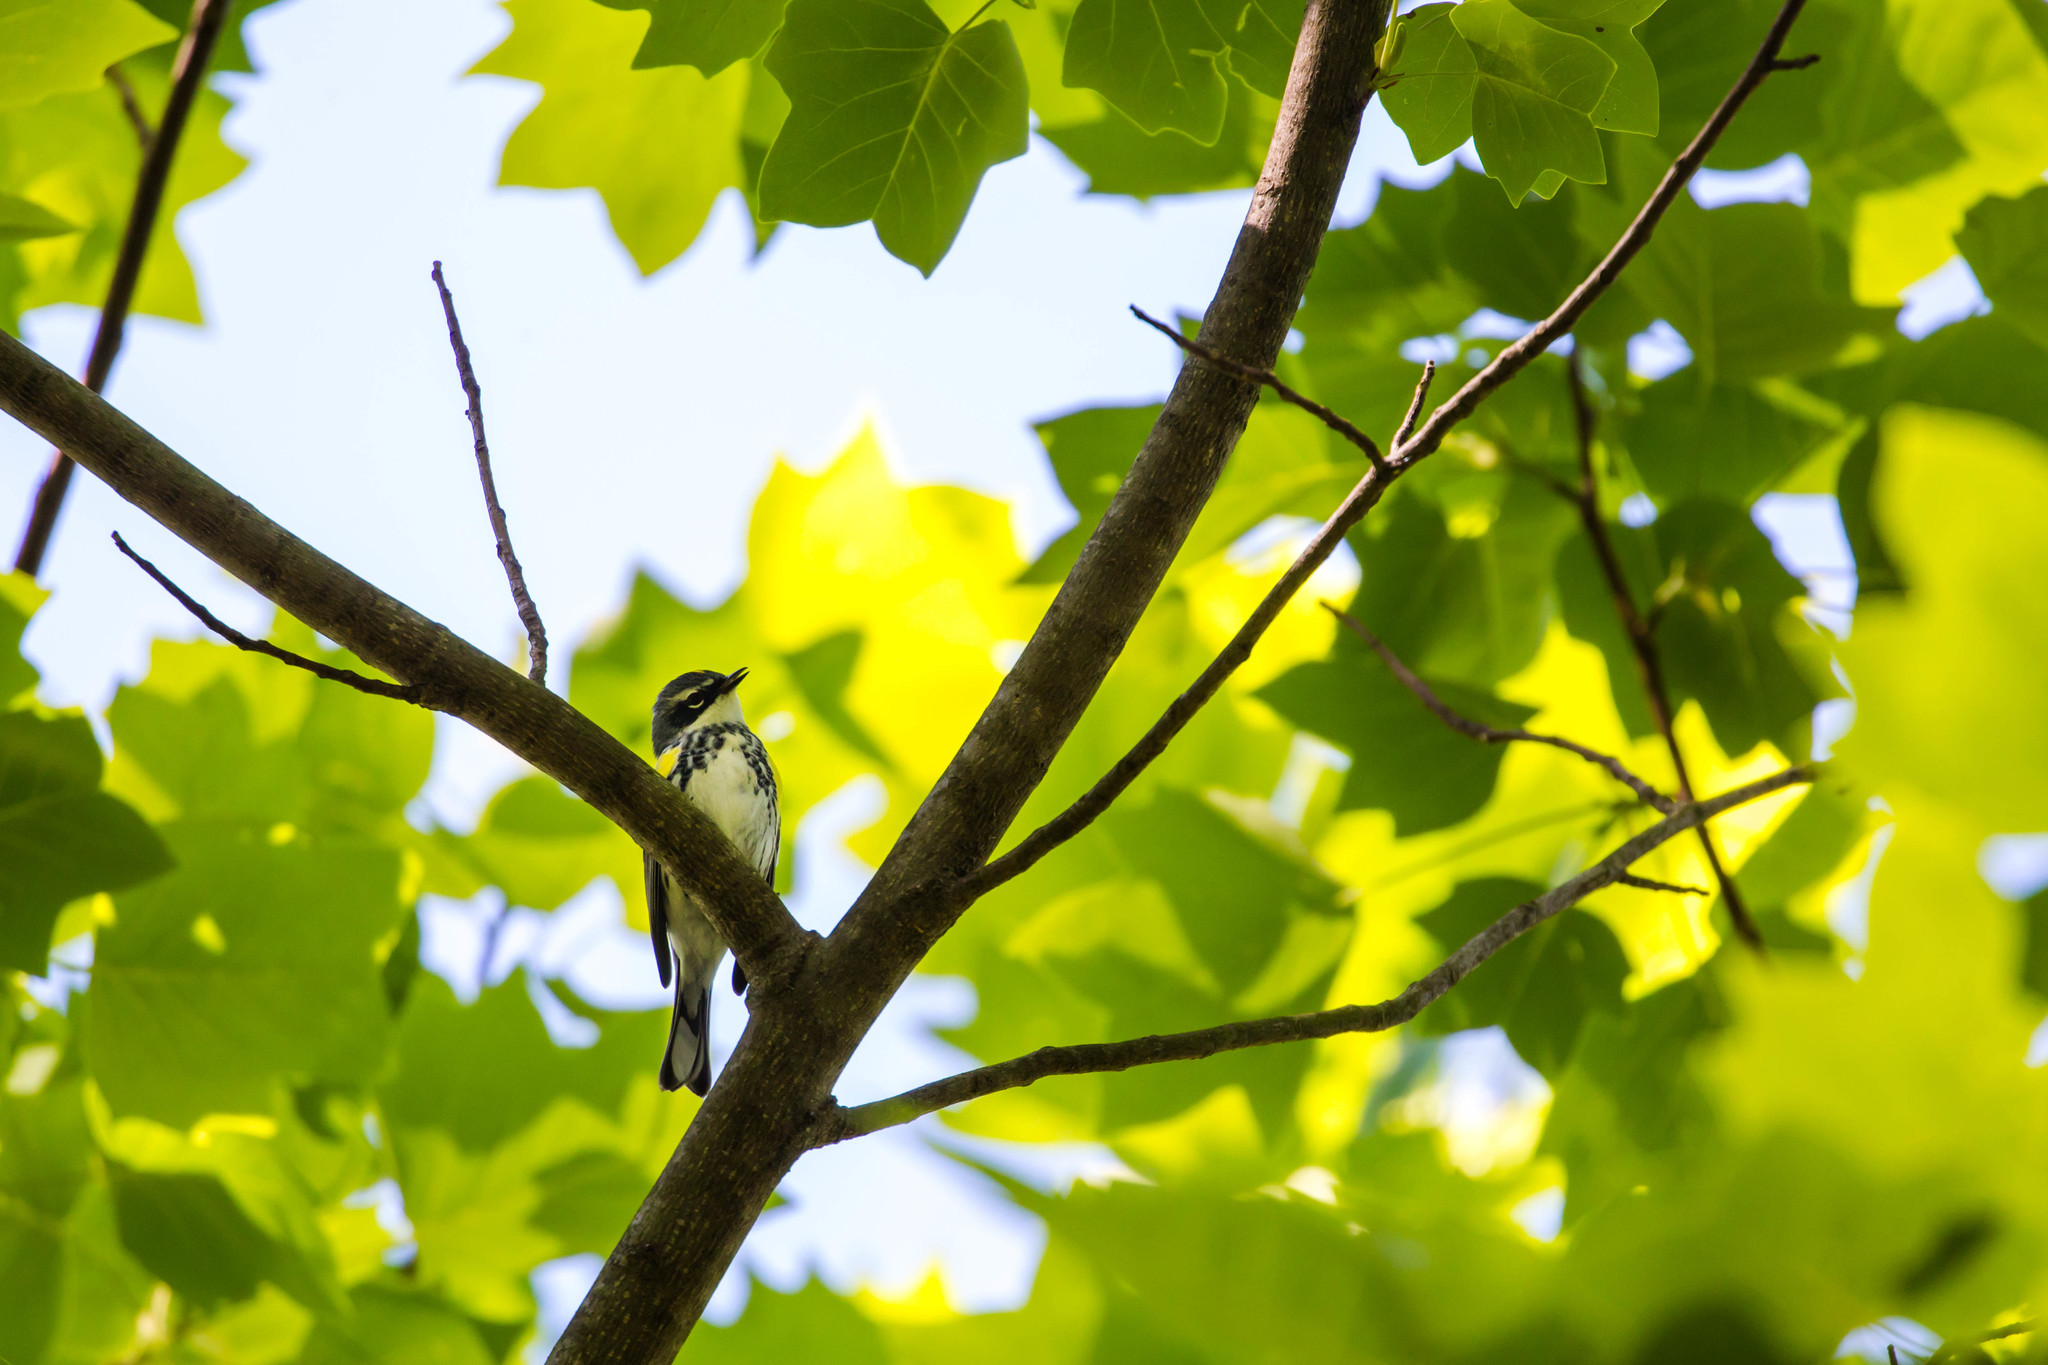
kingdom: Animalia
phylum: Chordata
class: Aves
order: Passeriformes
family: Parulidae
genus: Setophaga
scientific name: Setophaga coronata
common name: Myrtle warbler
